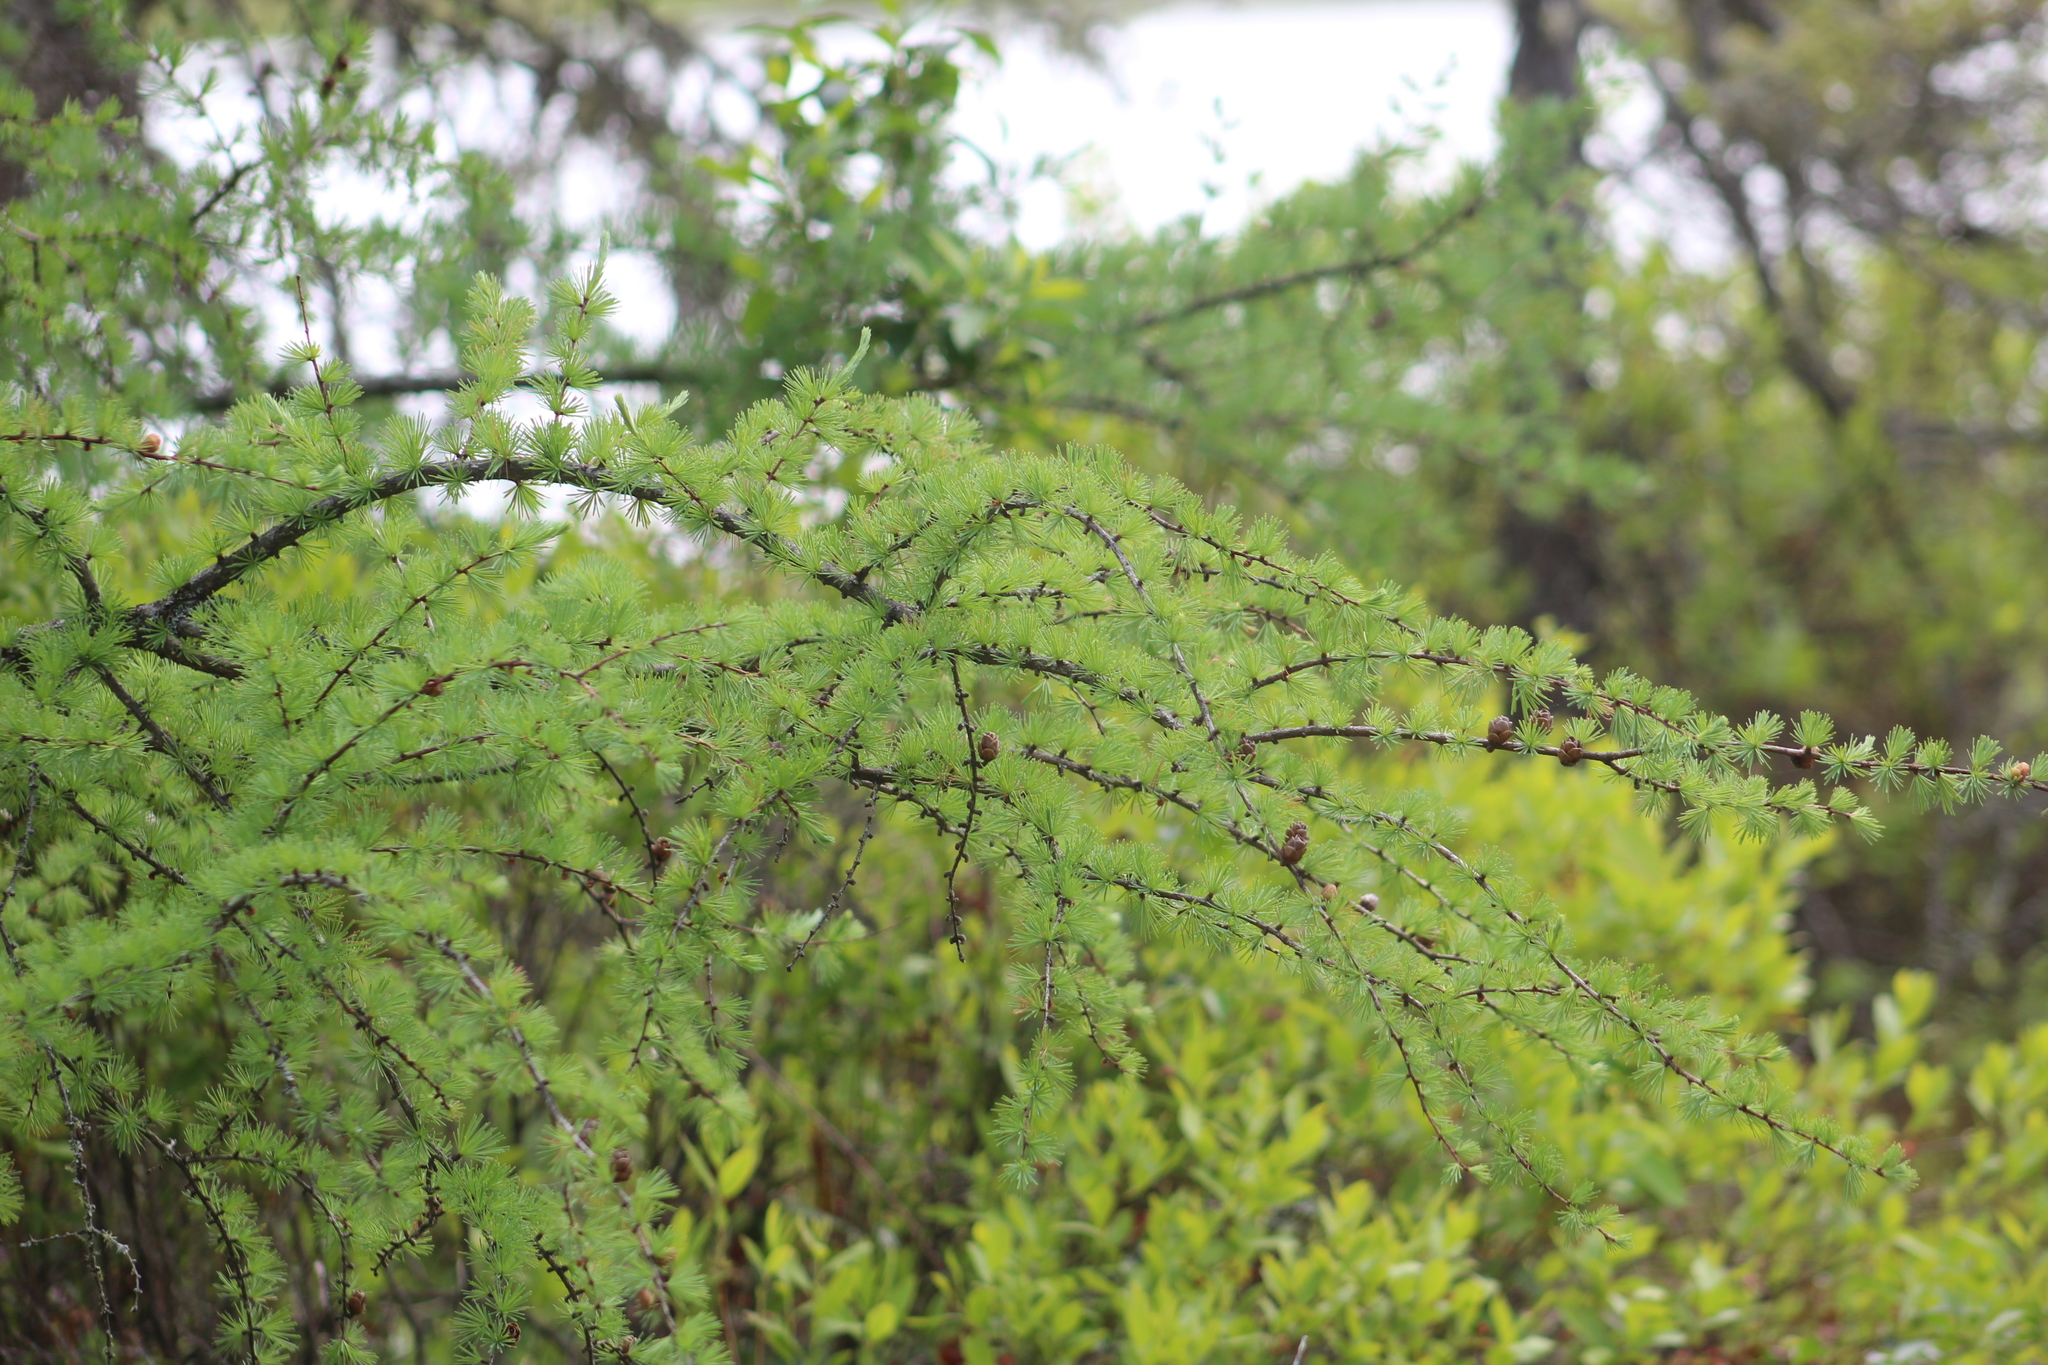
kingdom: Plantae
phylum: Tracheophyta
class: Pinopsida
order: Pinales
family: Pinaceae
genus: Larix
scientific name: Larix laricina
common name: American larch
